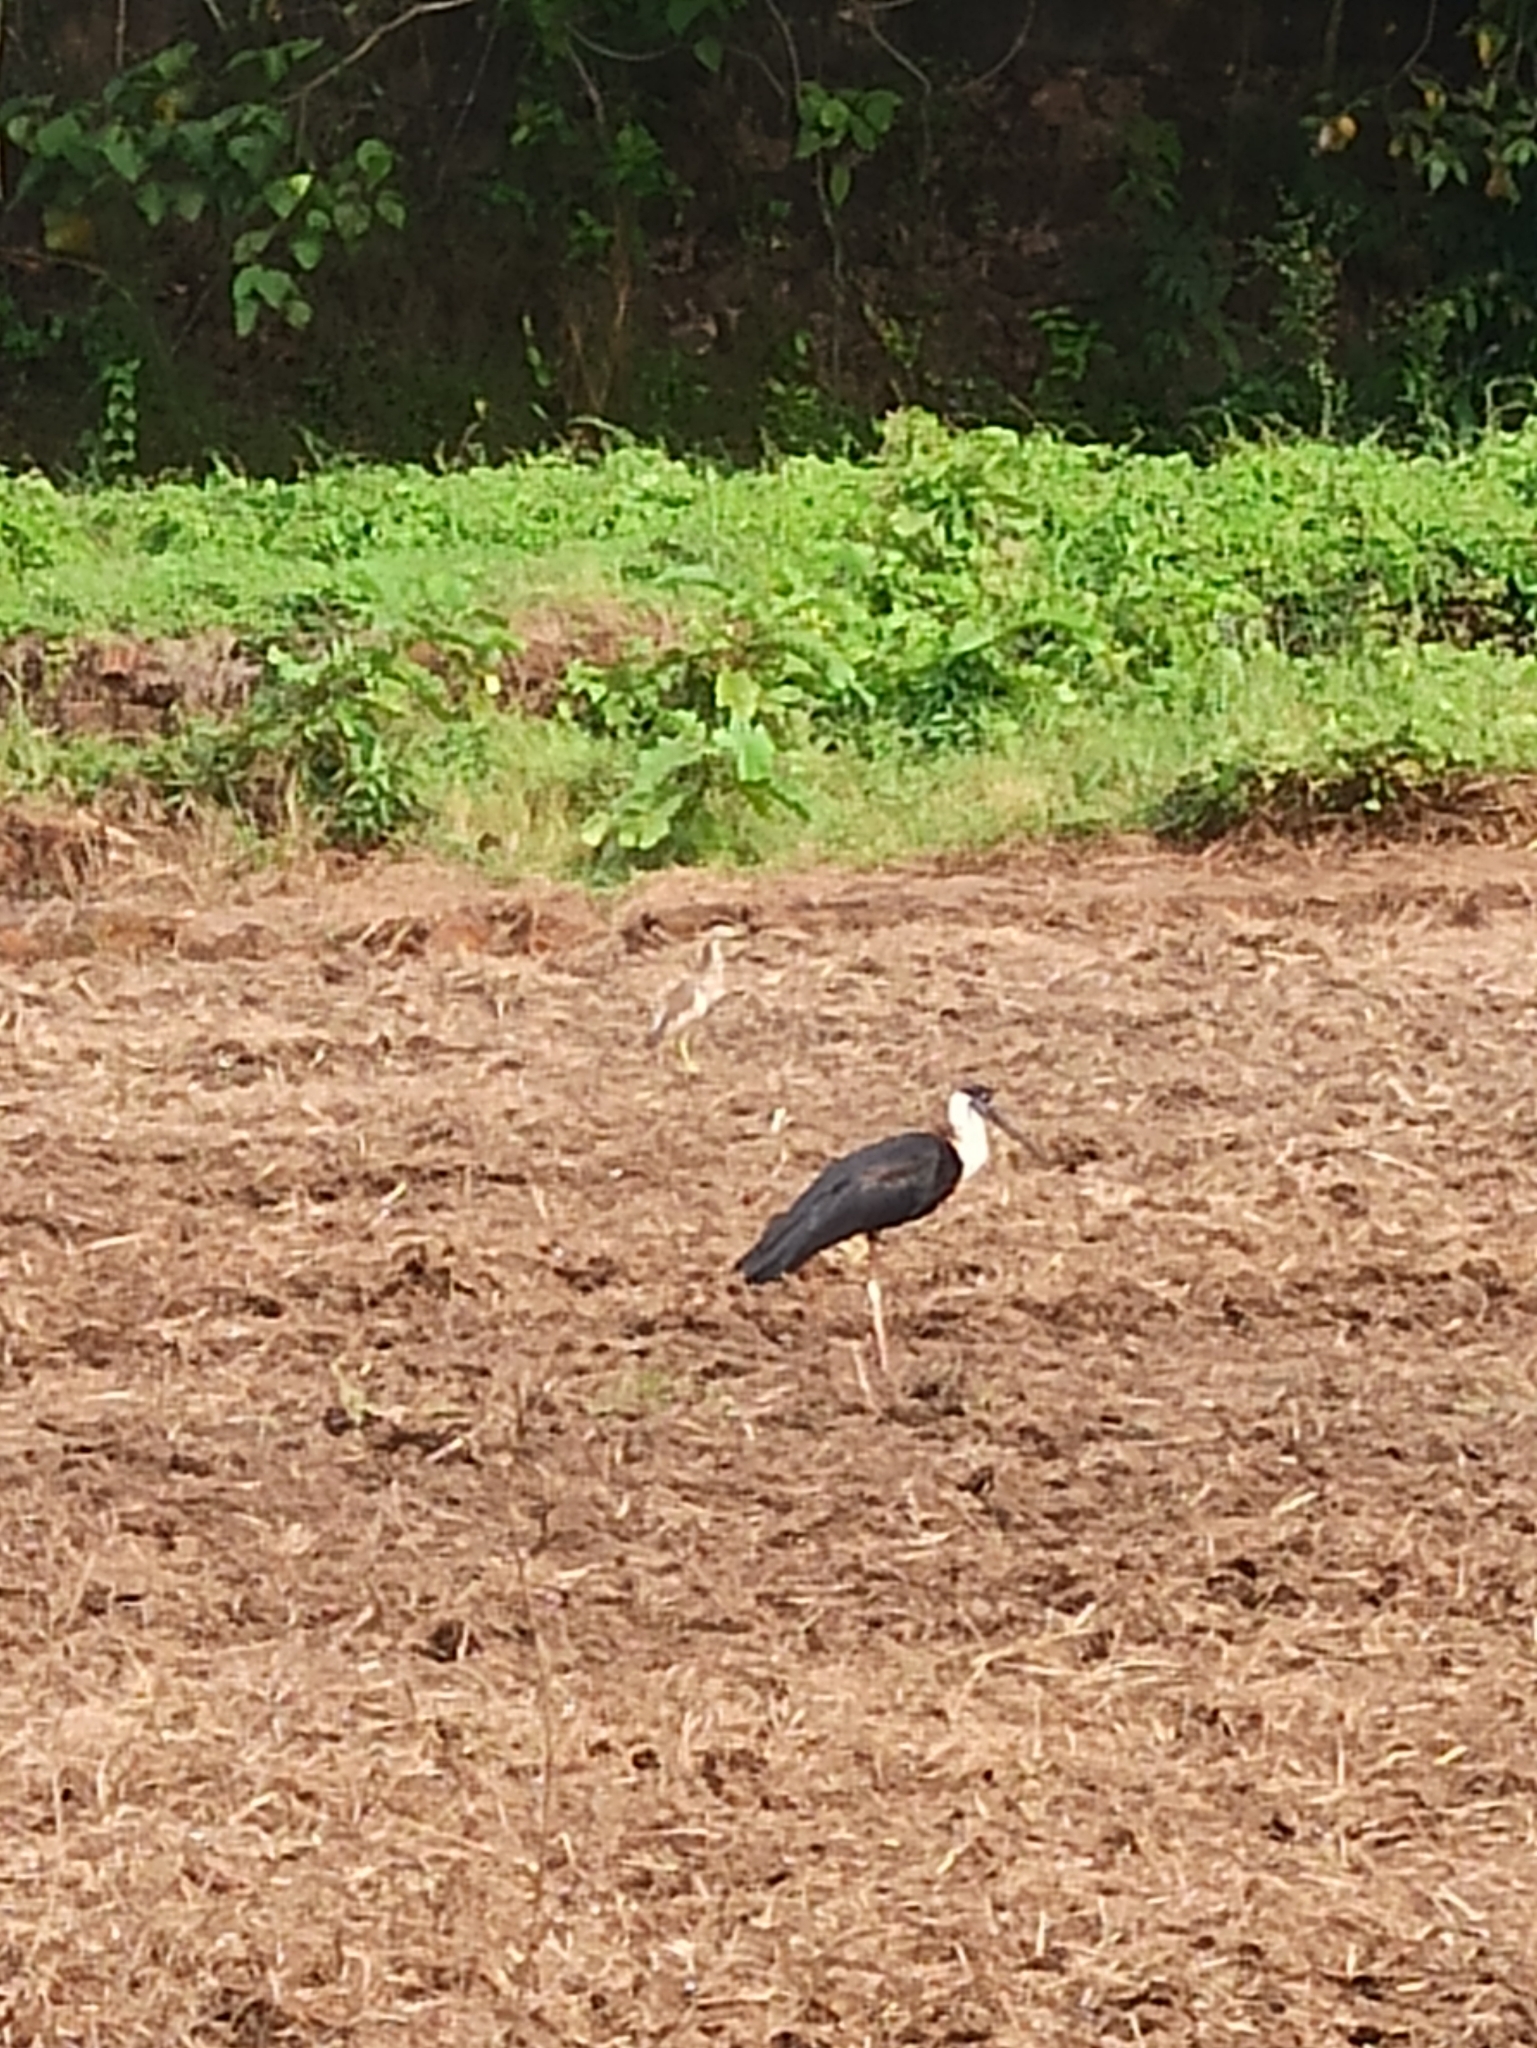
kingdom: Animalia
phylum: Chordata
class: Aves
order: Ciconiiformes
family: Ciconiidae
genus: Ciconia
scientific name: Ciconia episcopus
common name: Woolly-necked stork
